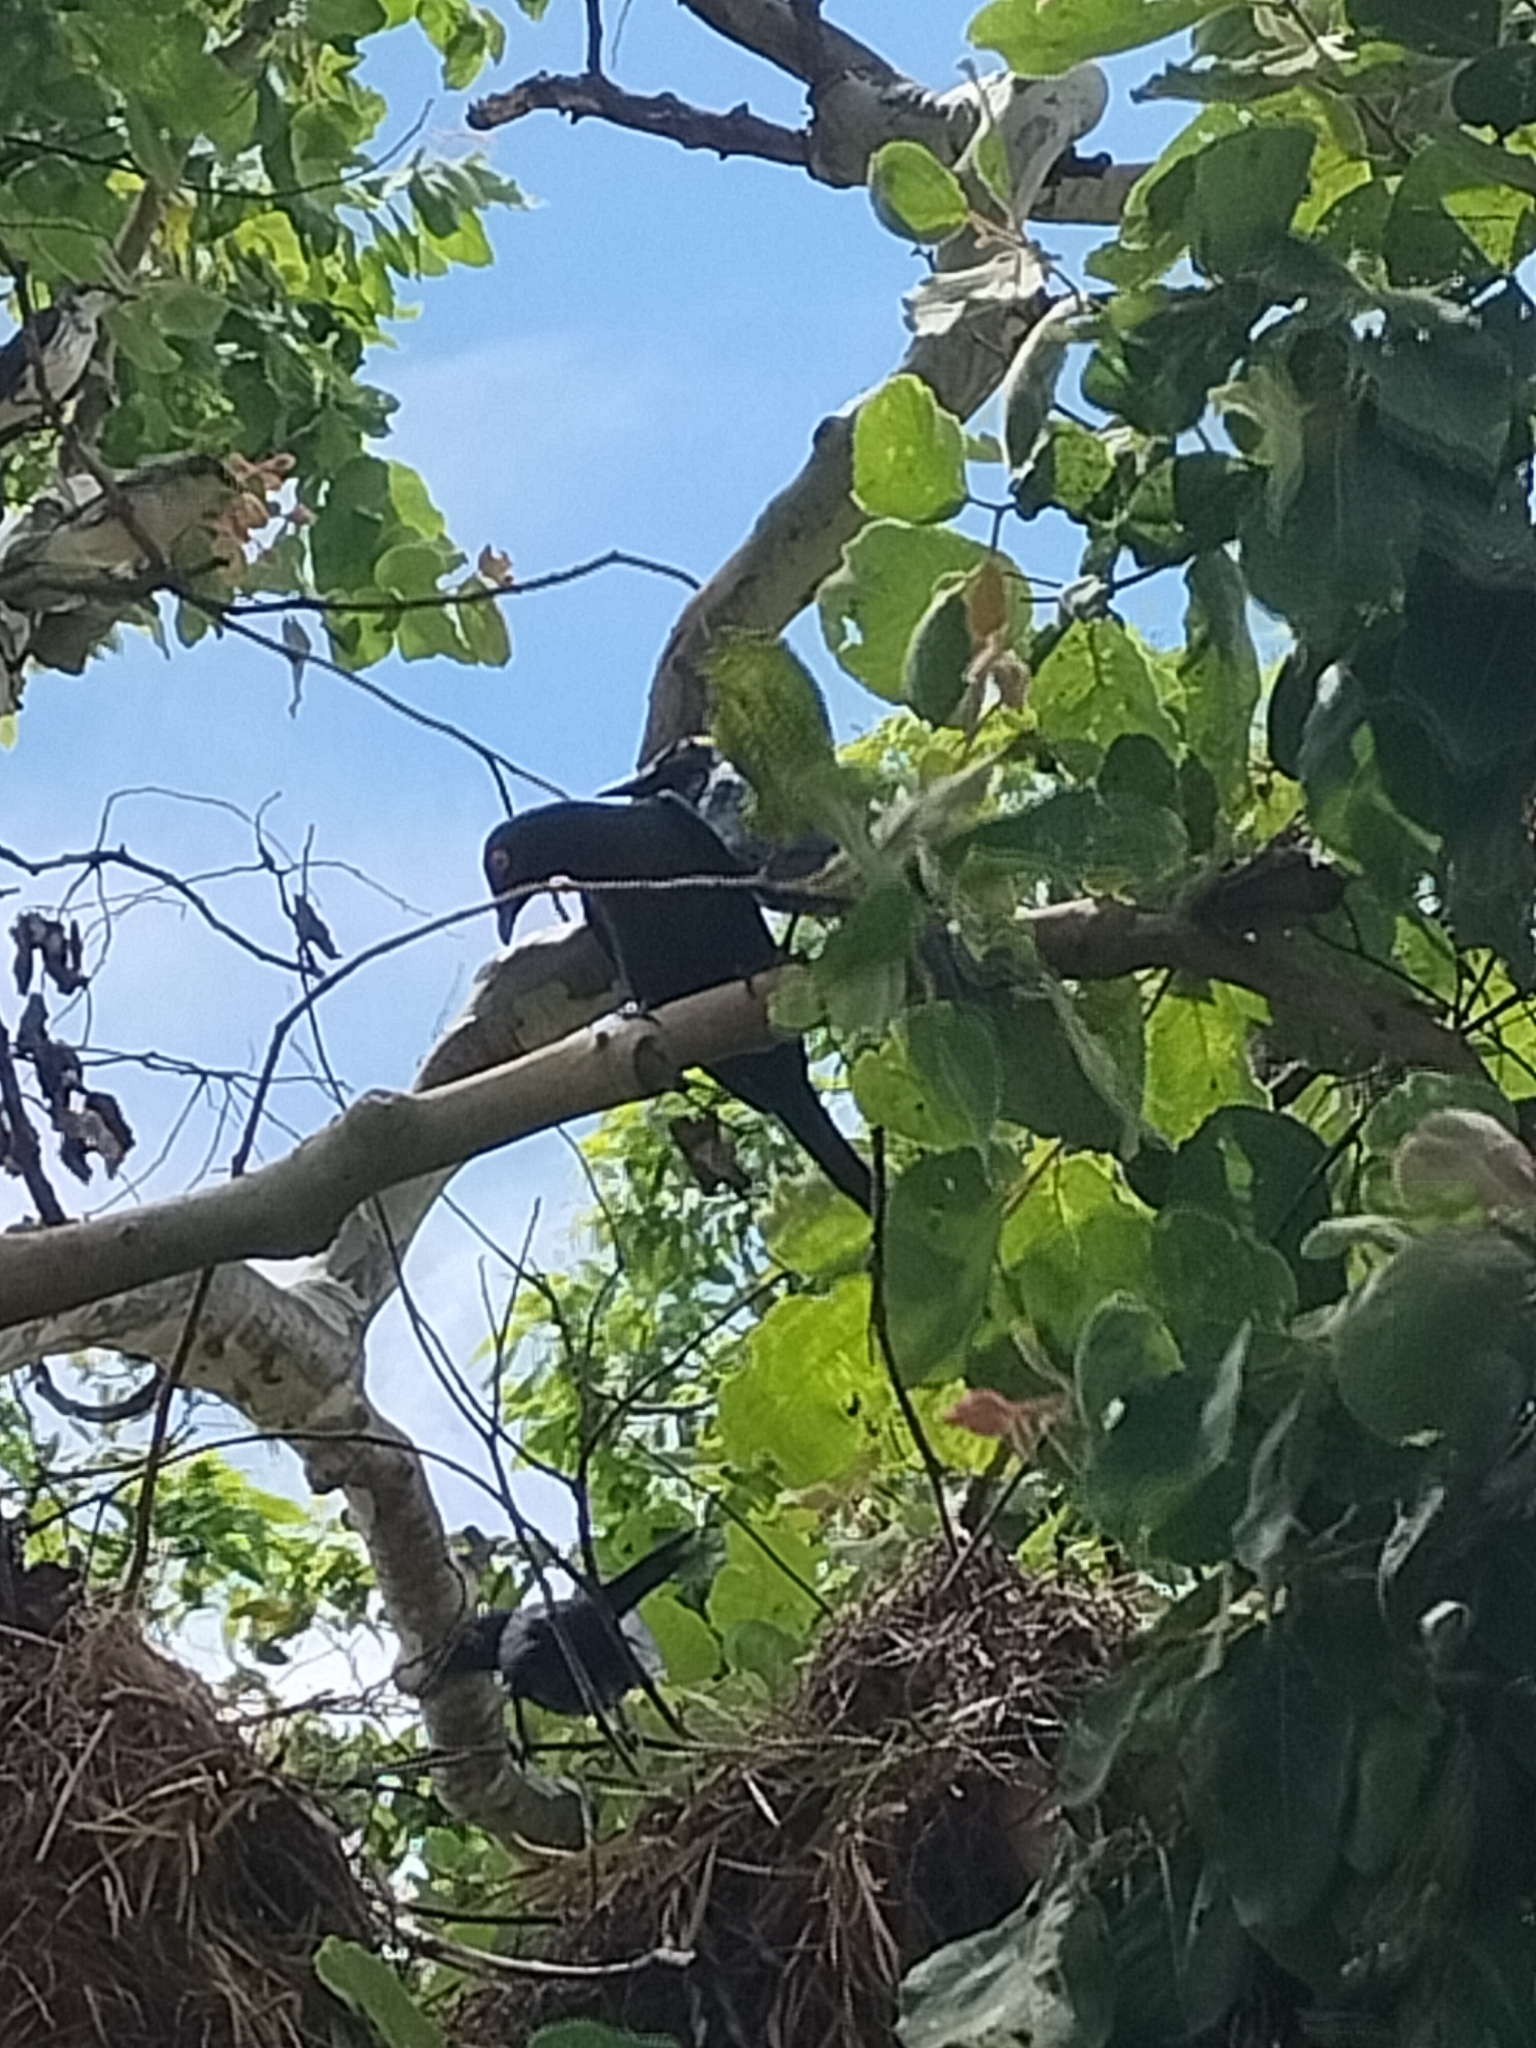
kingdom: Animalia
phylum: Chordata
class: Aves
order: Passeriformes
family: Sturnidae
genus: Aplonis
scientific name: Aplonis metallica
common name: Metallic starling
